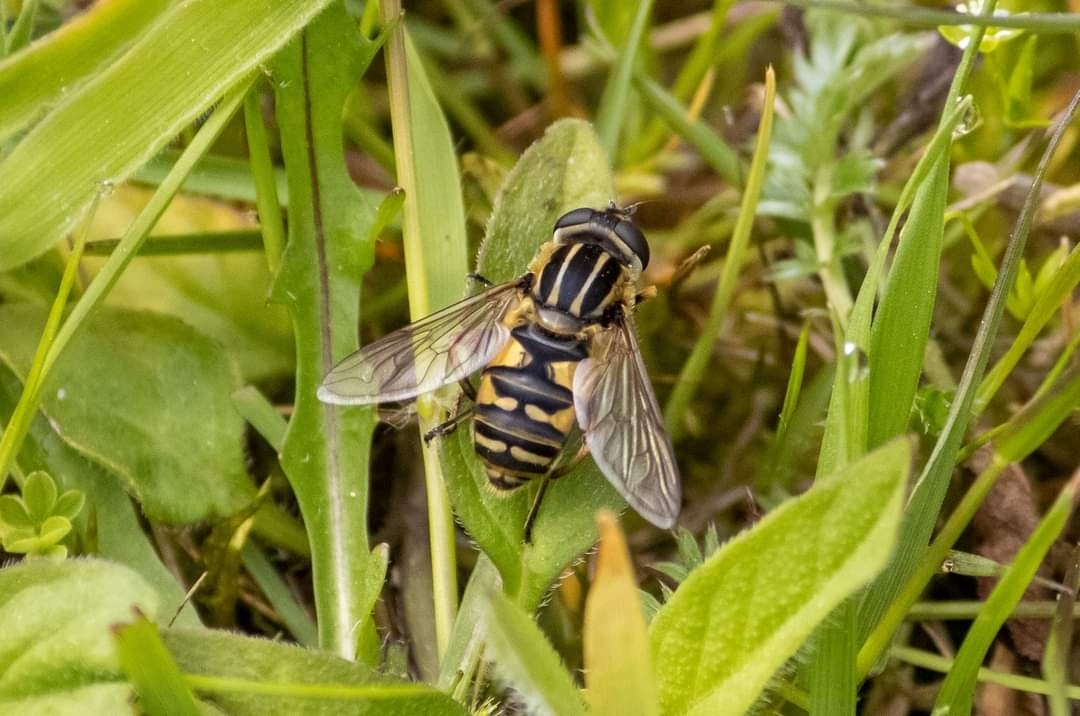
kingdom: Animalia
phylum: Arthropoda
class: Insecta
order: Diptera
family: Syrphidae
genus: Helophilus
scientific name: Helophilus pendulus
